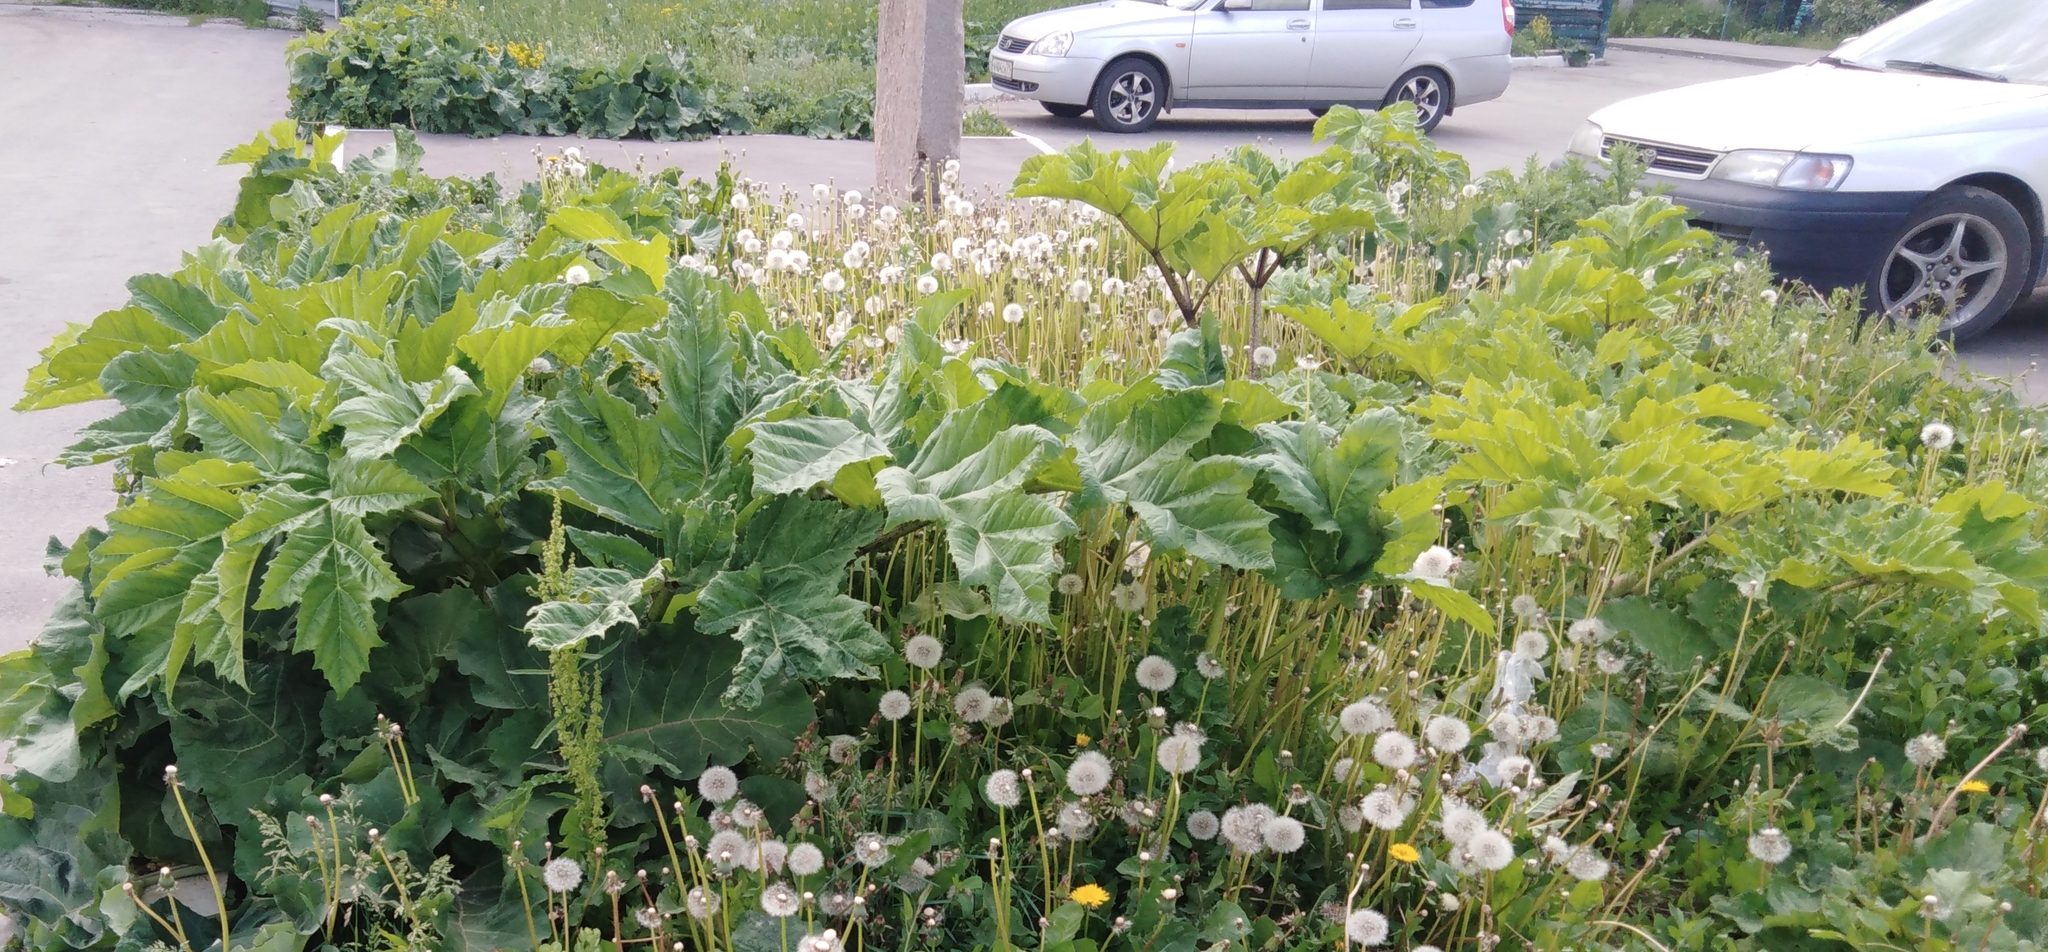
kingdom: Plantae
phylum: Tracheophyta
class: Magnoliopsida
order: Apiales
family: Apiaceae
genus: Heracleum
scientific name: Heracleum sosnowskyi
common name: Sosnowsky's hogweed
